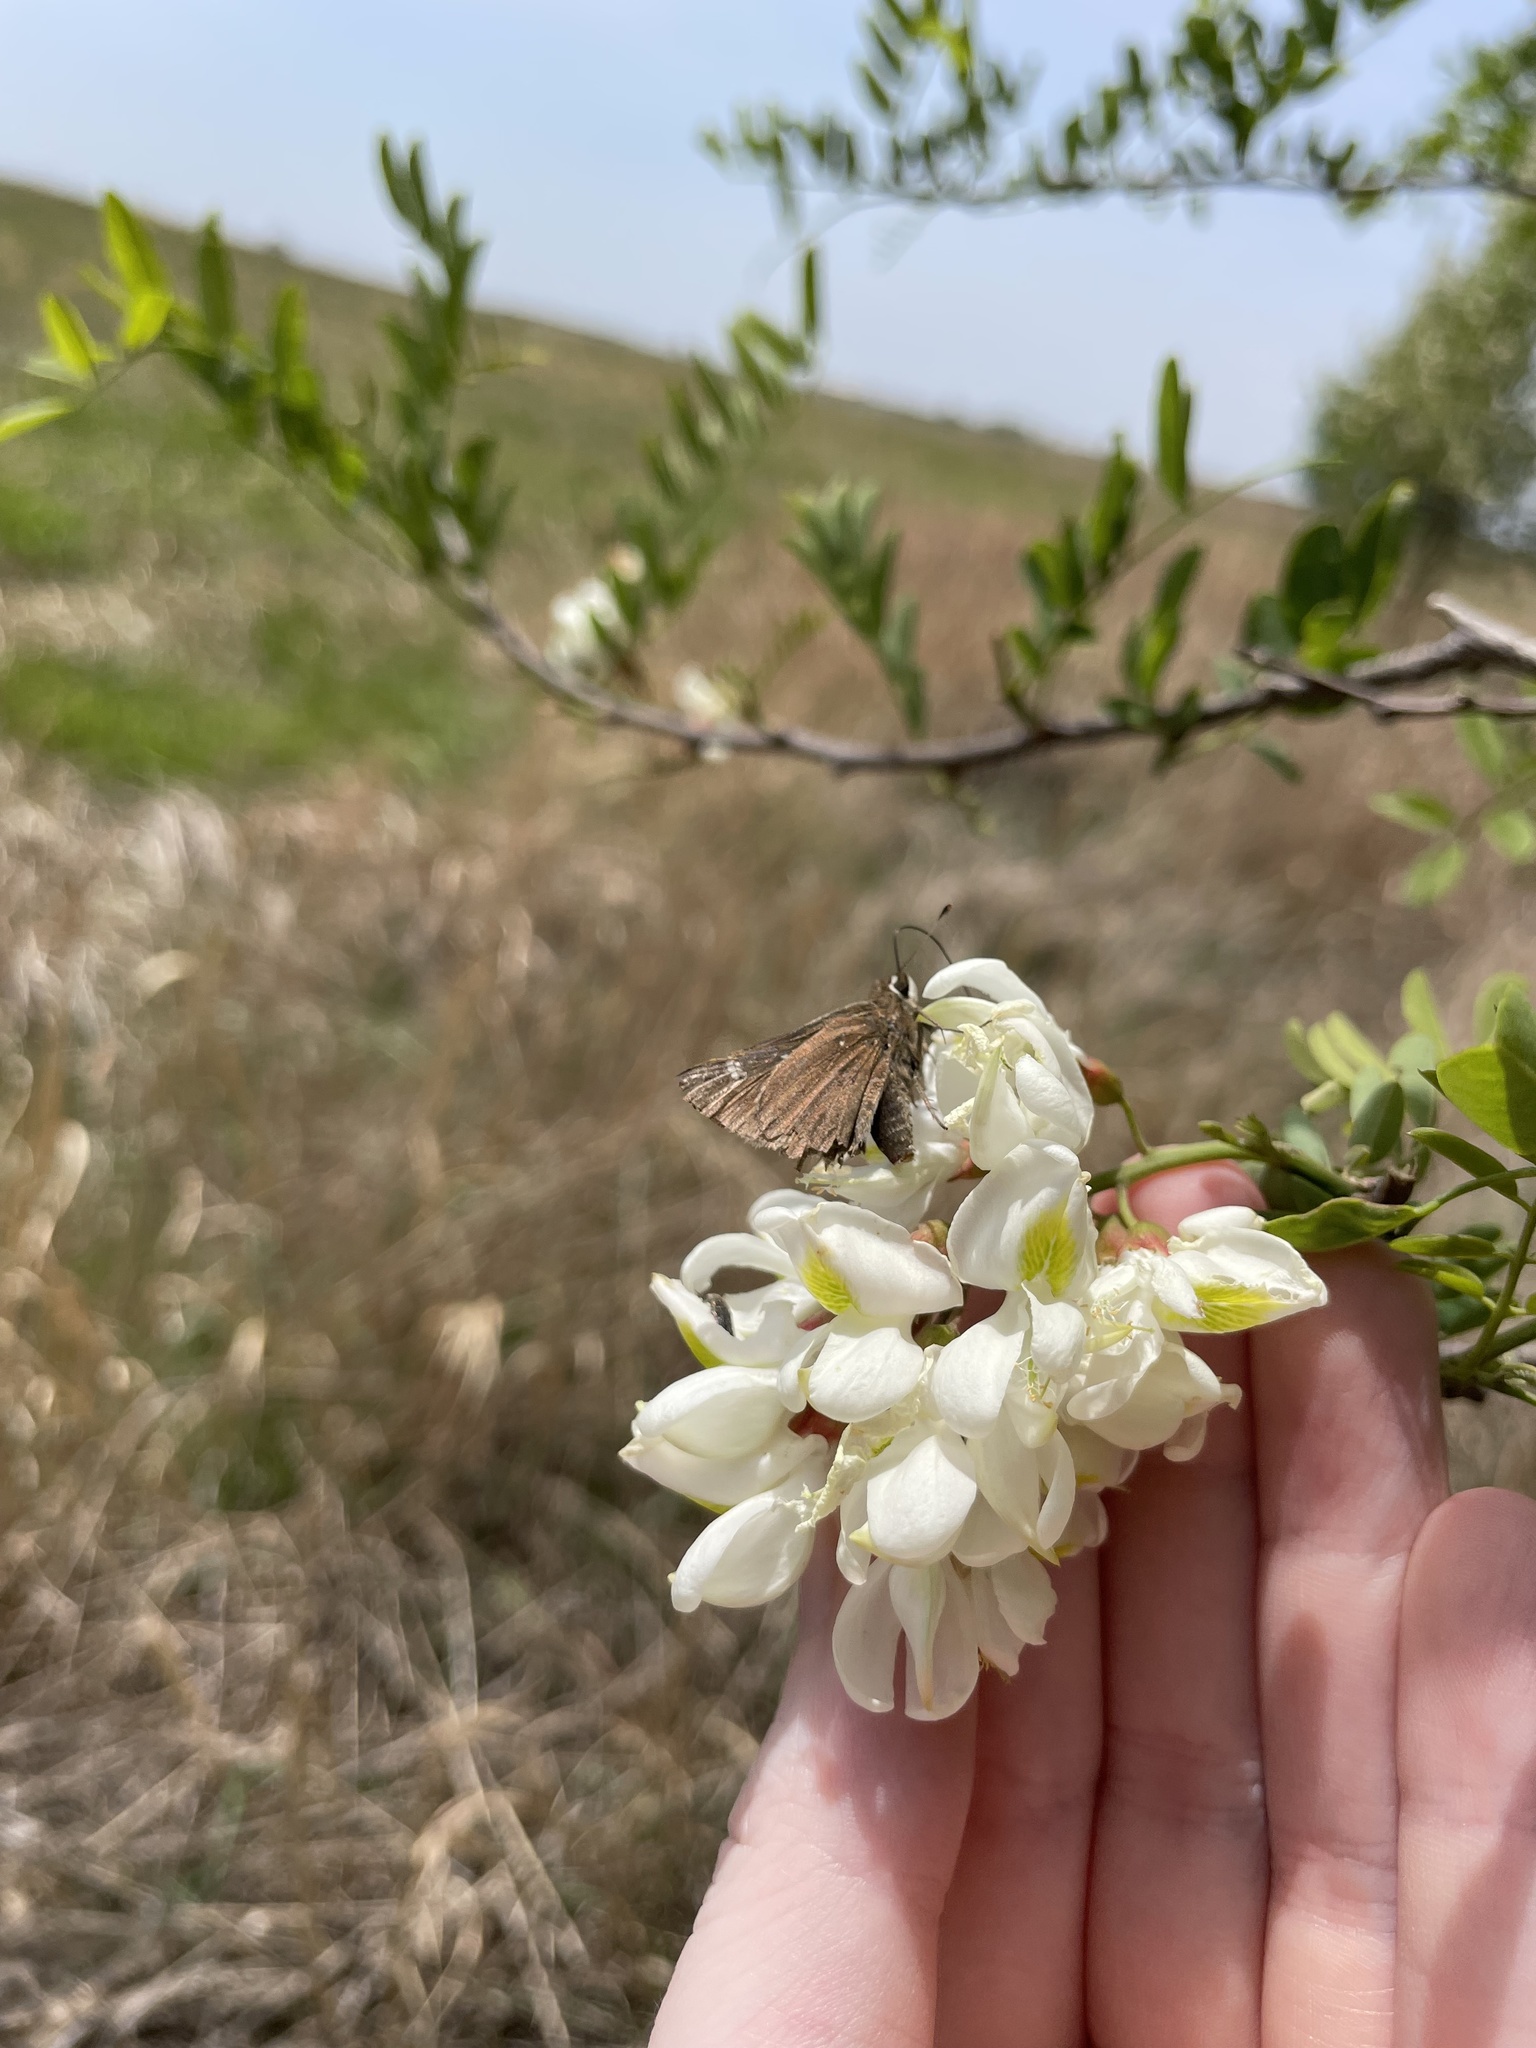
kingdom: Animalia
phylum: Arthropoda
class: Insecta
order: Lepidoptera
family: Hesperiidae
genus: Mastor
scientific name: Mastor vialis
